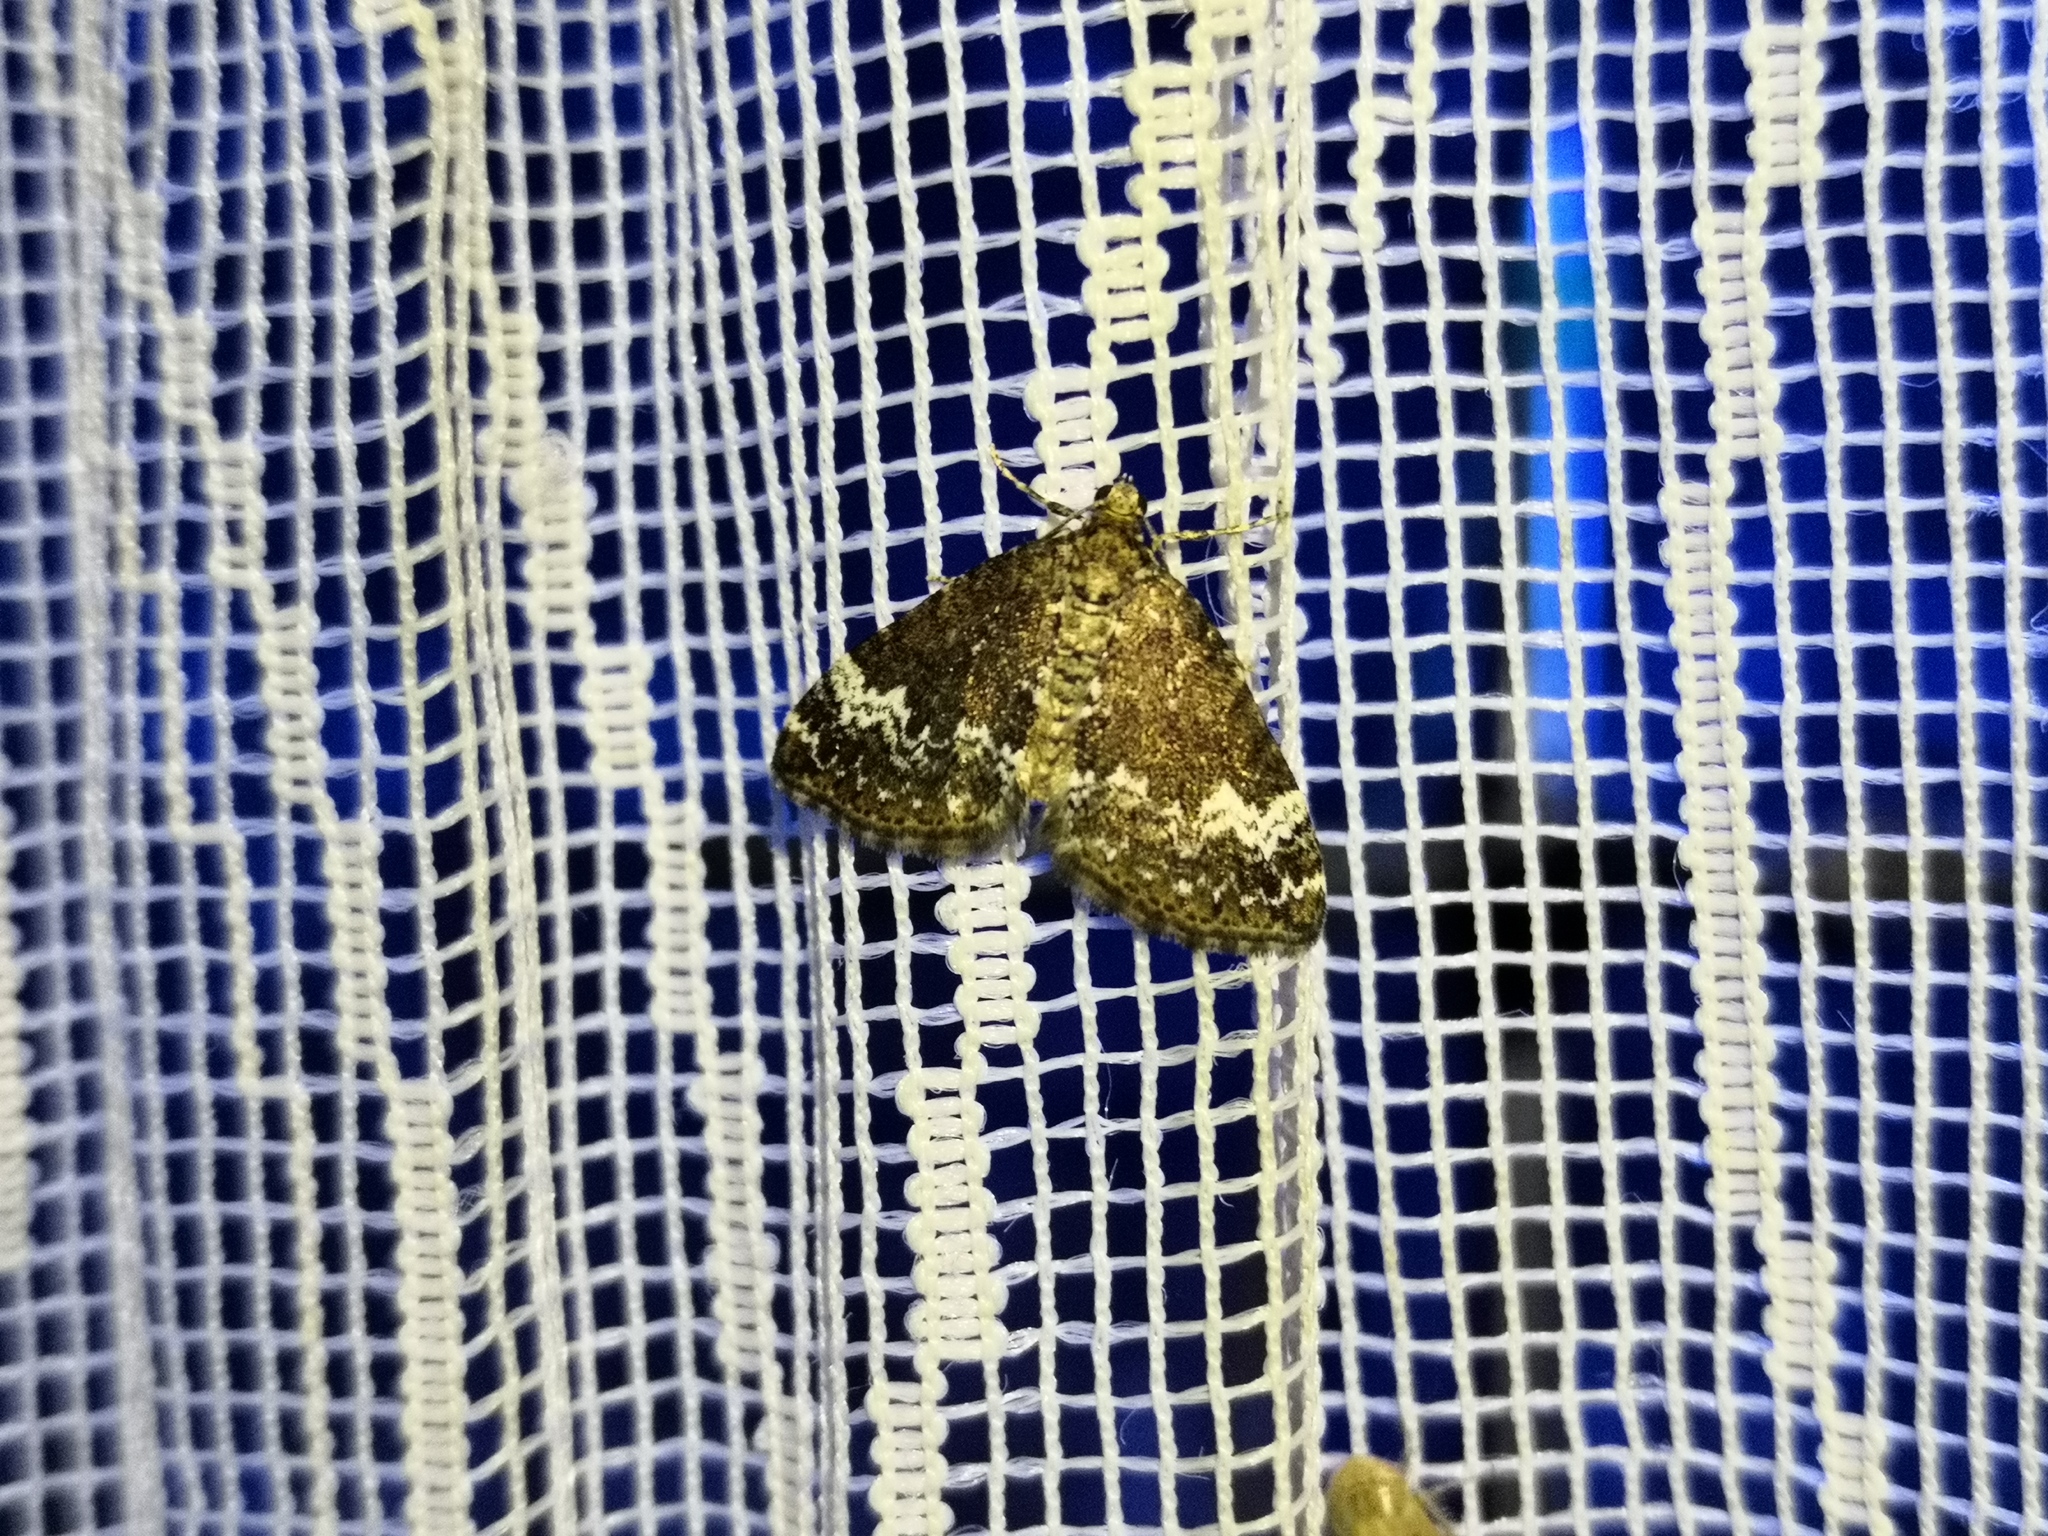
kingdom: Animalia
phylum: Arthropoda
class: Insecta
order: Lepidoptera
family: Geometridae
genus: Perizoma
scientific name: Perizoma alchemillata
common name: Small rivulet
